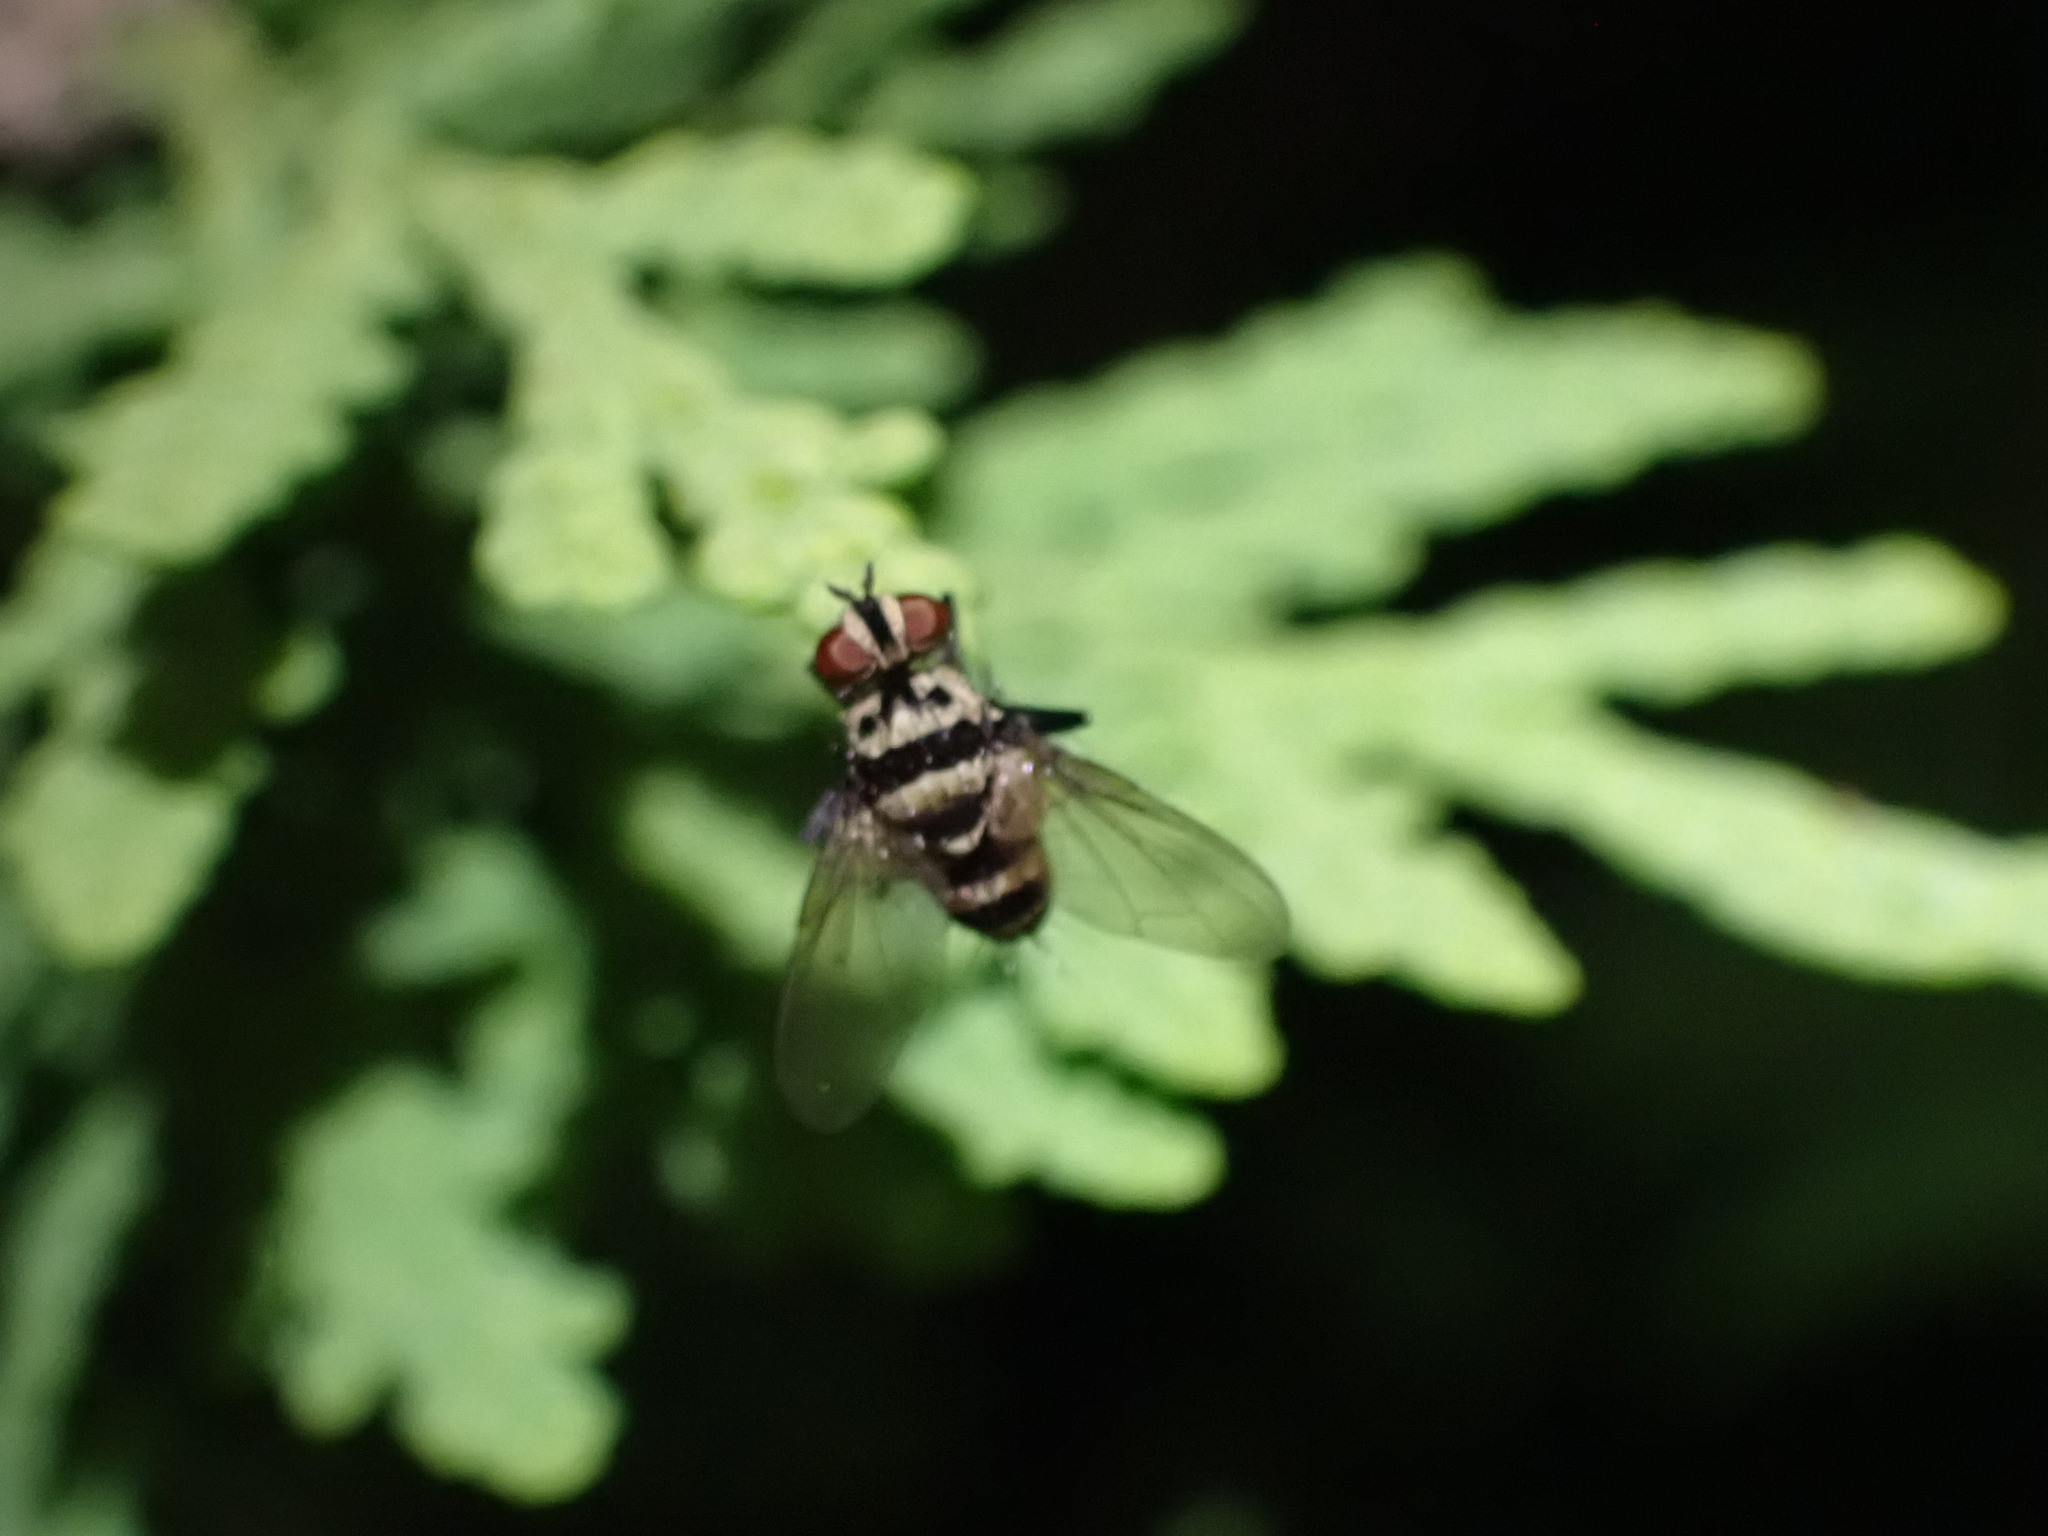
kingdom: Animalia
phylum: Arthropoda
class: Insecta
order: Diptera
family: Tachinidae
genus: Trigonospila
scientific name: Trigonospila brevifacies
